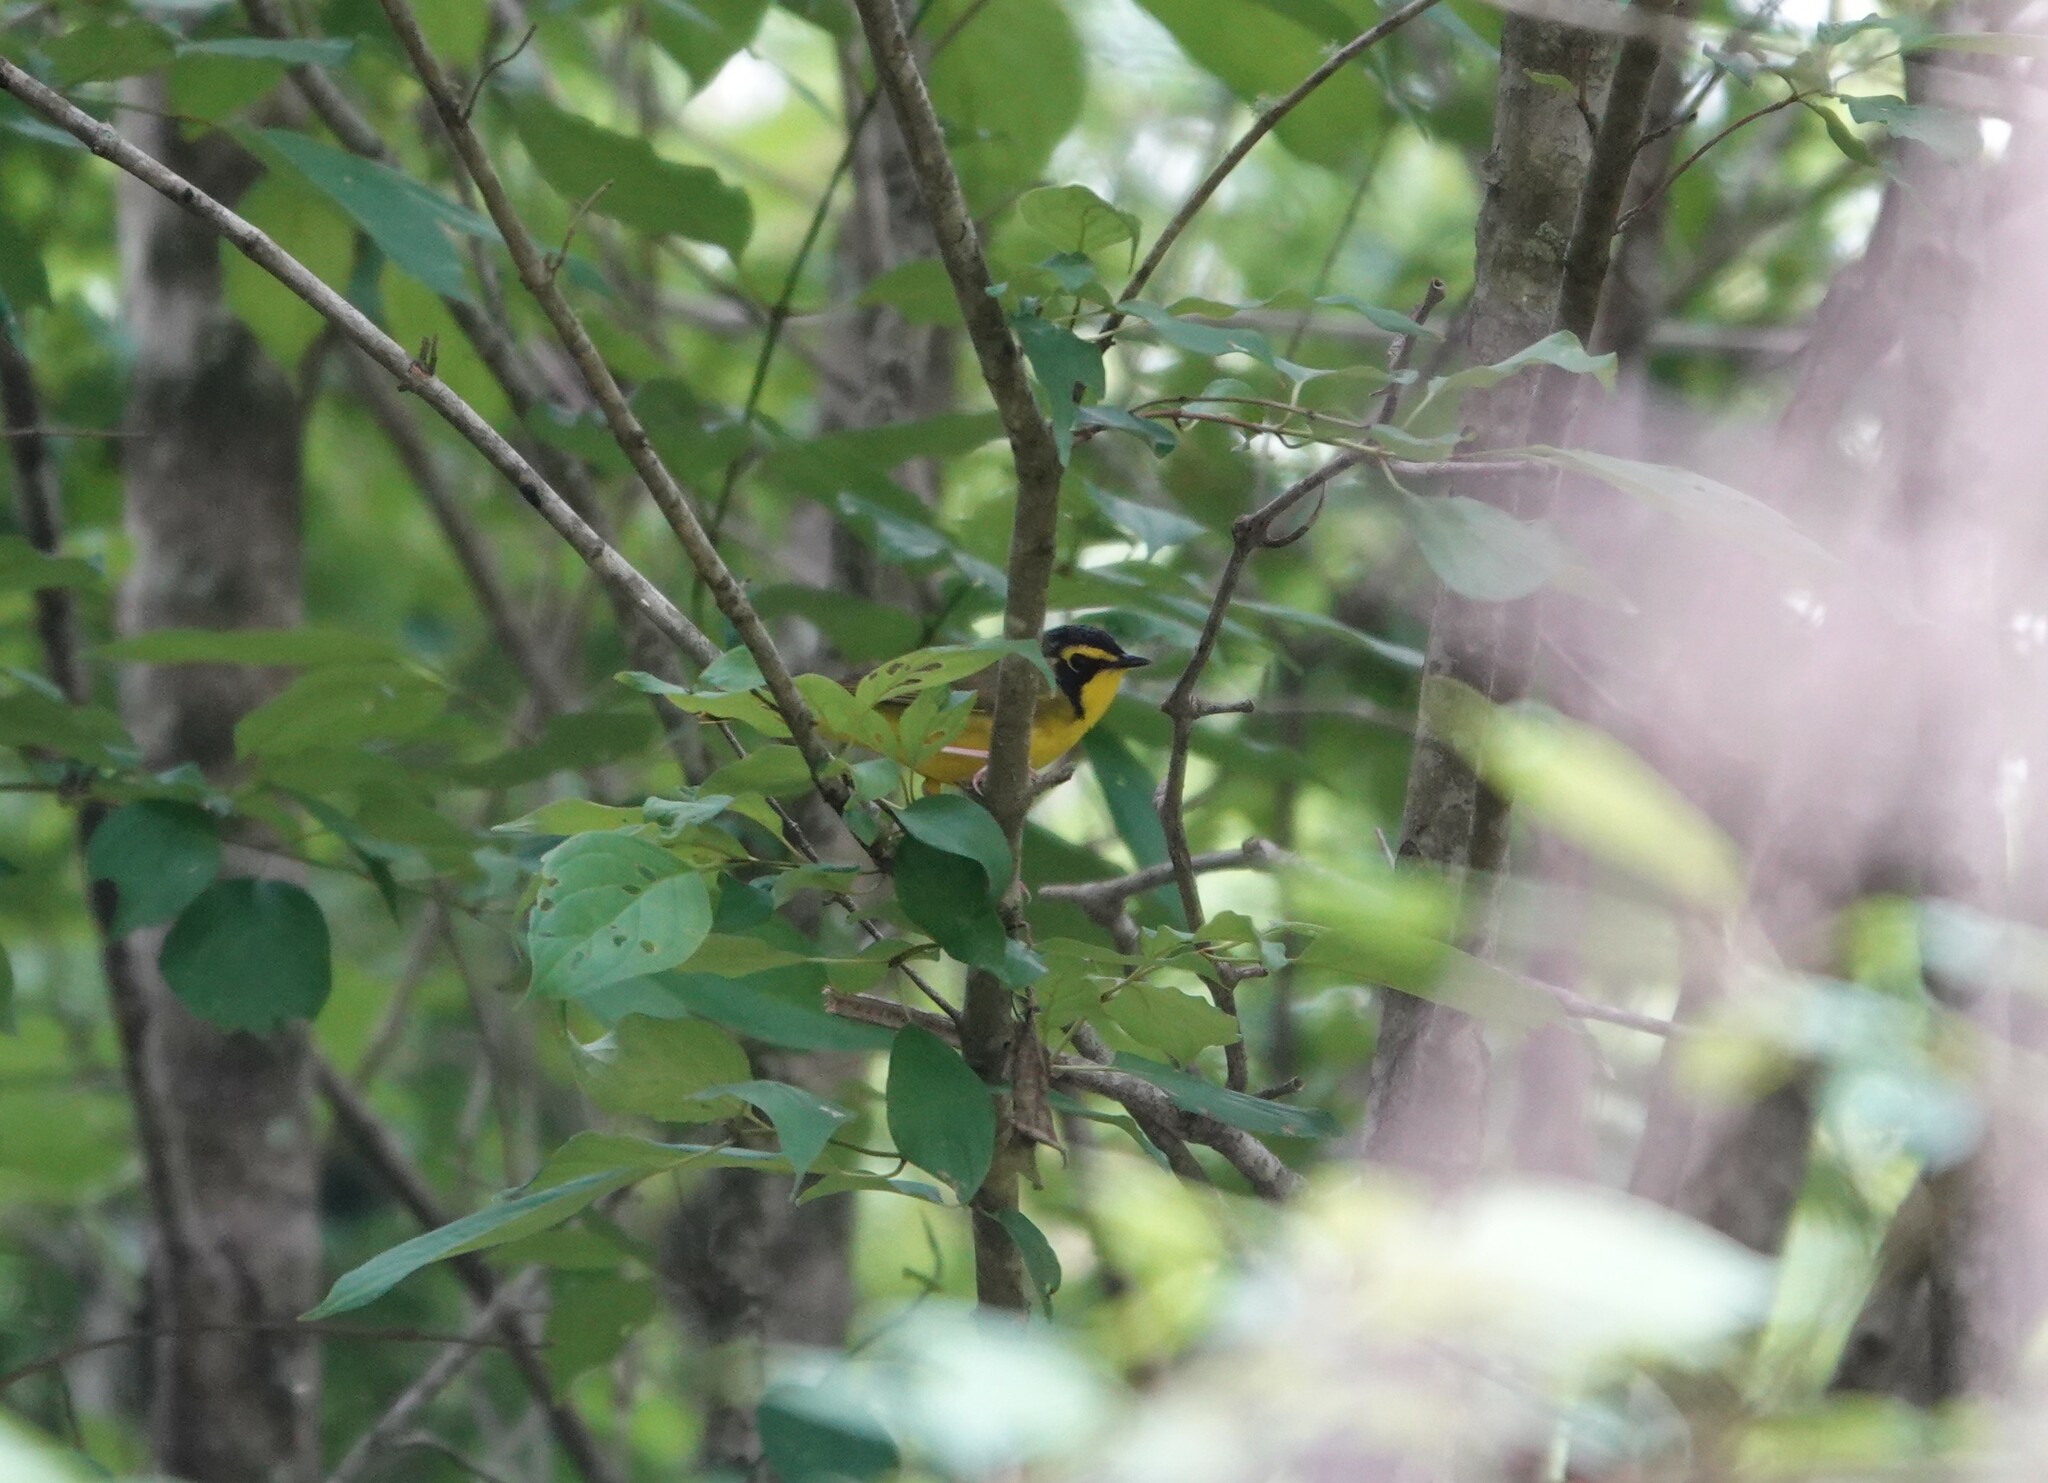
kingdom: Animalia
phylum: Chordata
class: Aves
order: Passeriformes
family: Parulidae
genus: Geothlypis
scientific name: Geothlypis formosa
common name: Kentucky warbler
